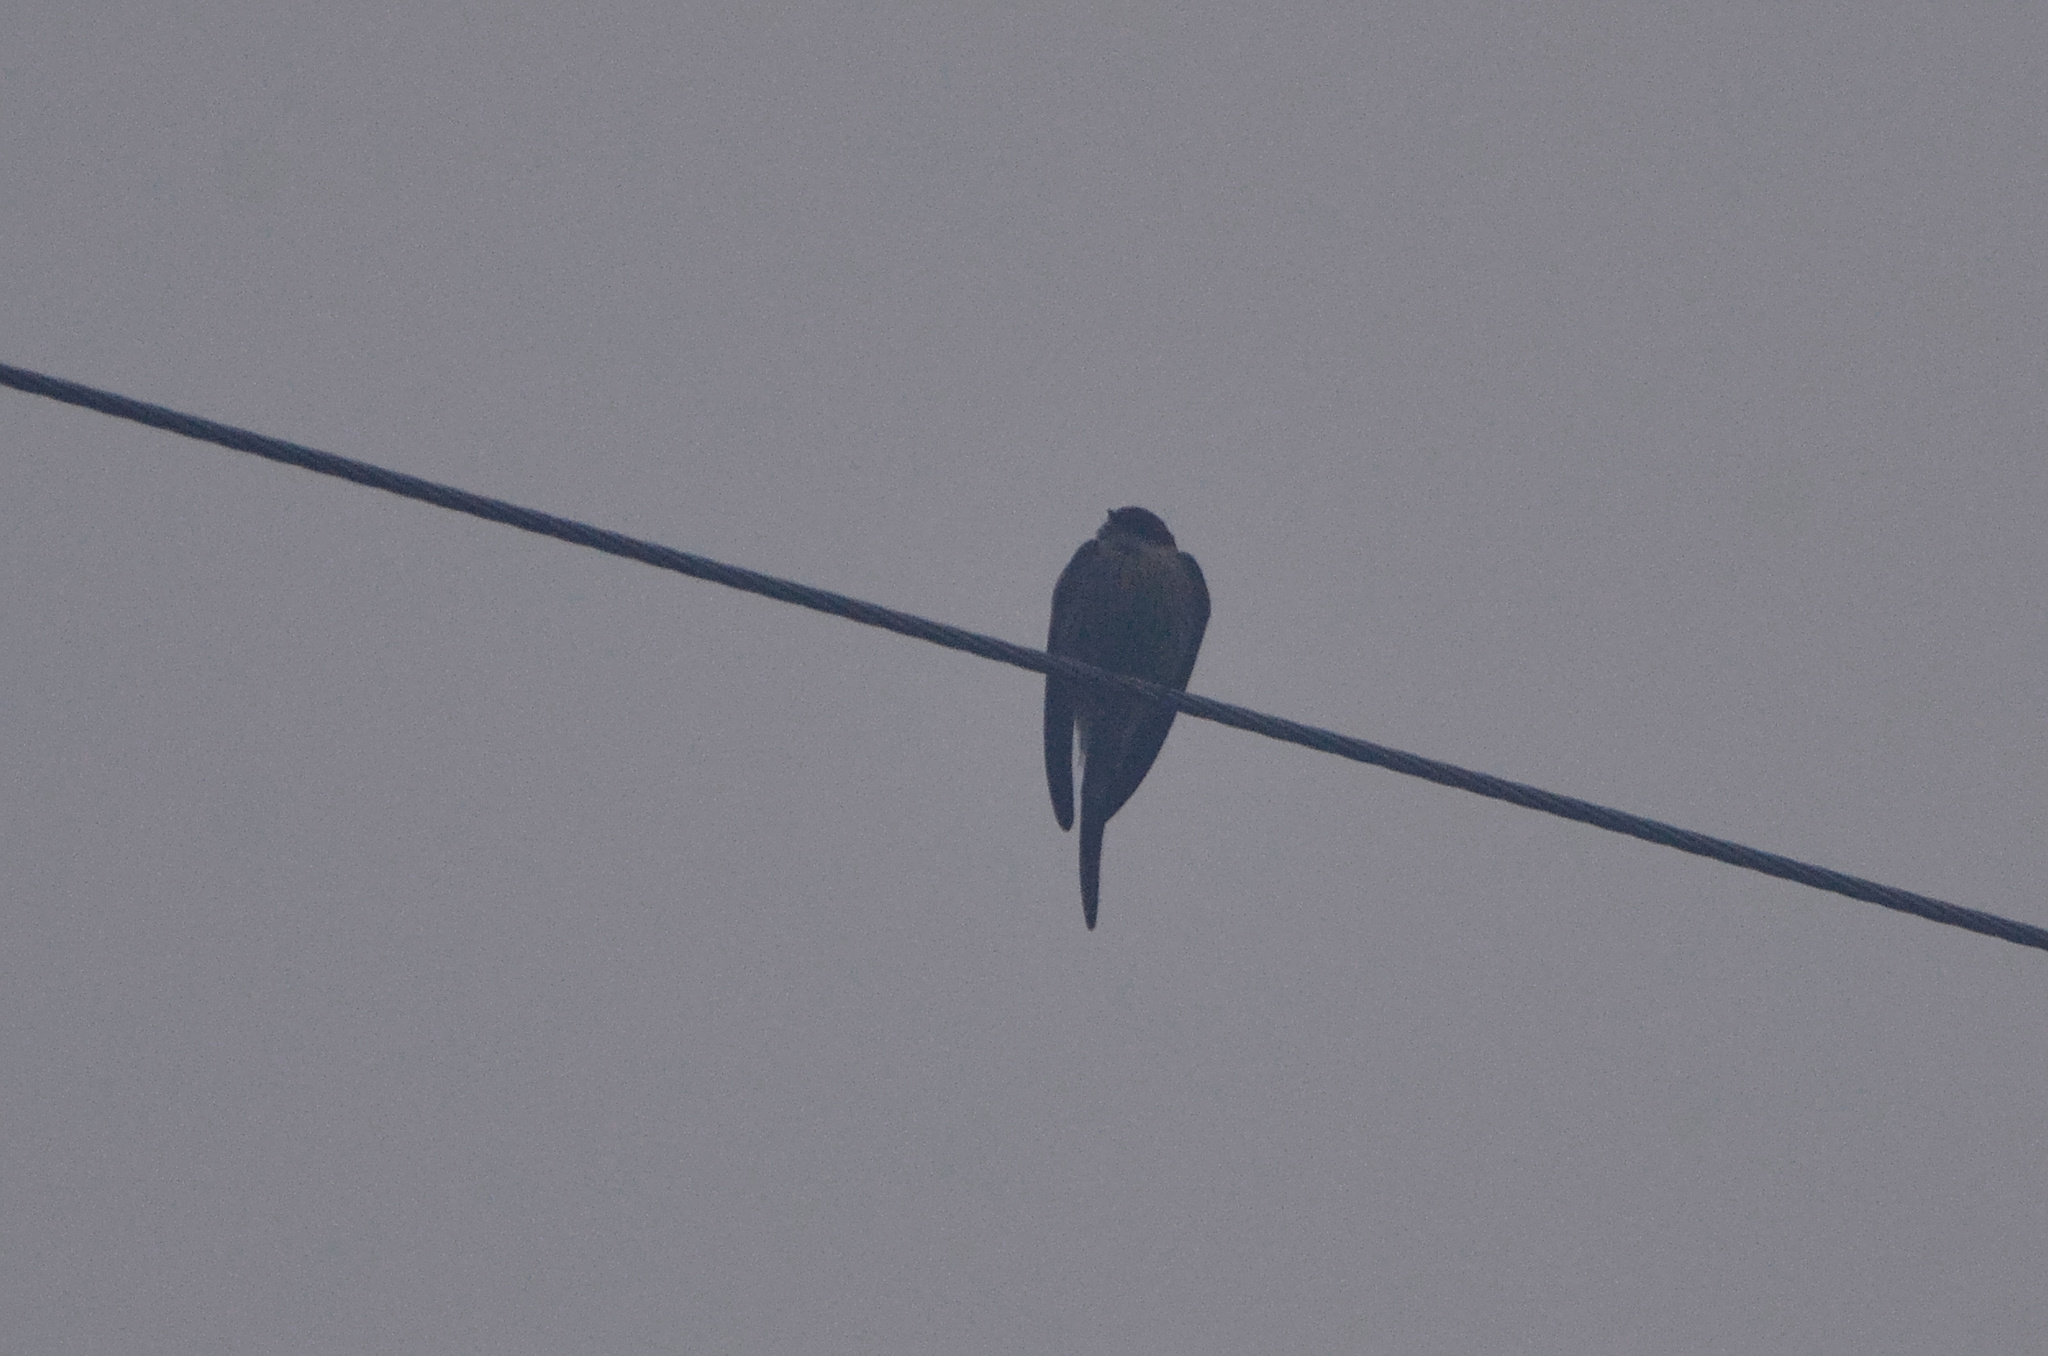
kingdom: Animalia
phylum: Chordata
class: Aves
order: Passeriformes
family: Hirundinidae
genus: Cecropis
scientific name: Cecropis cucullata
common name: Greater striped-swallow
